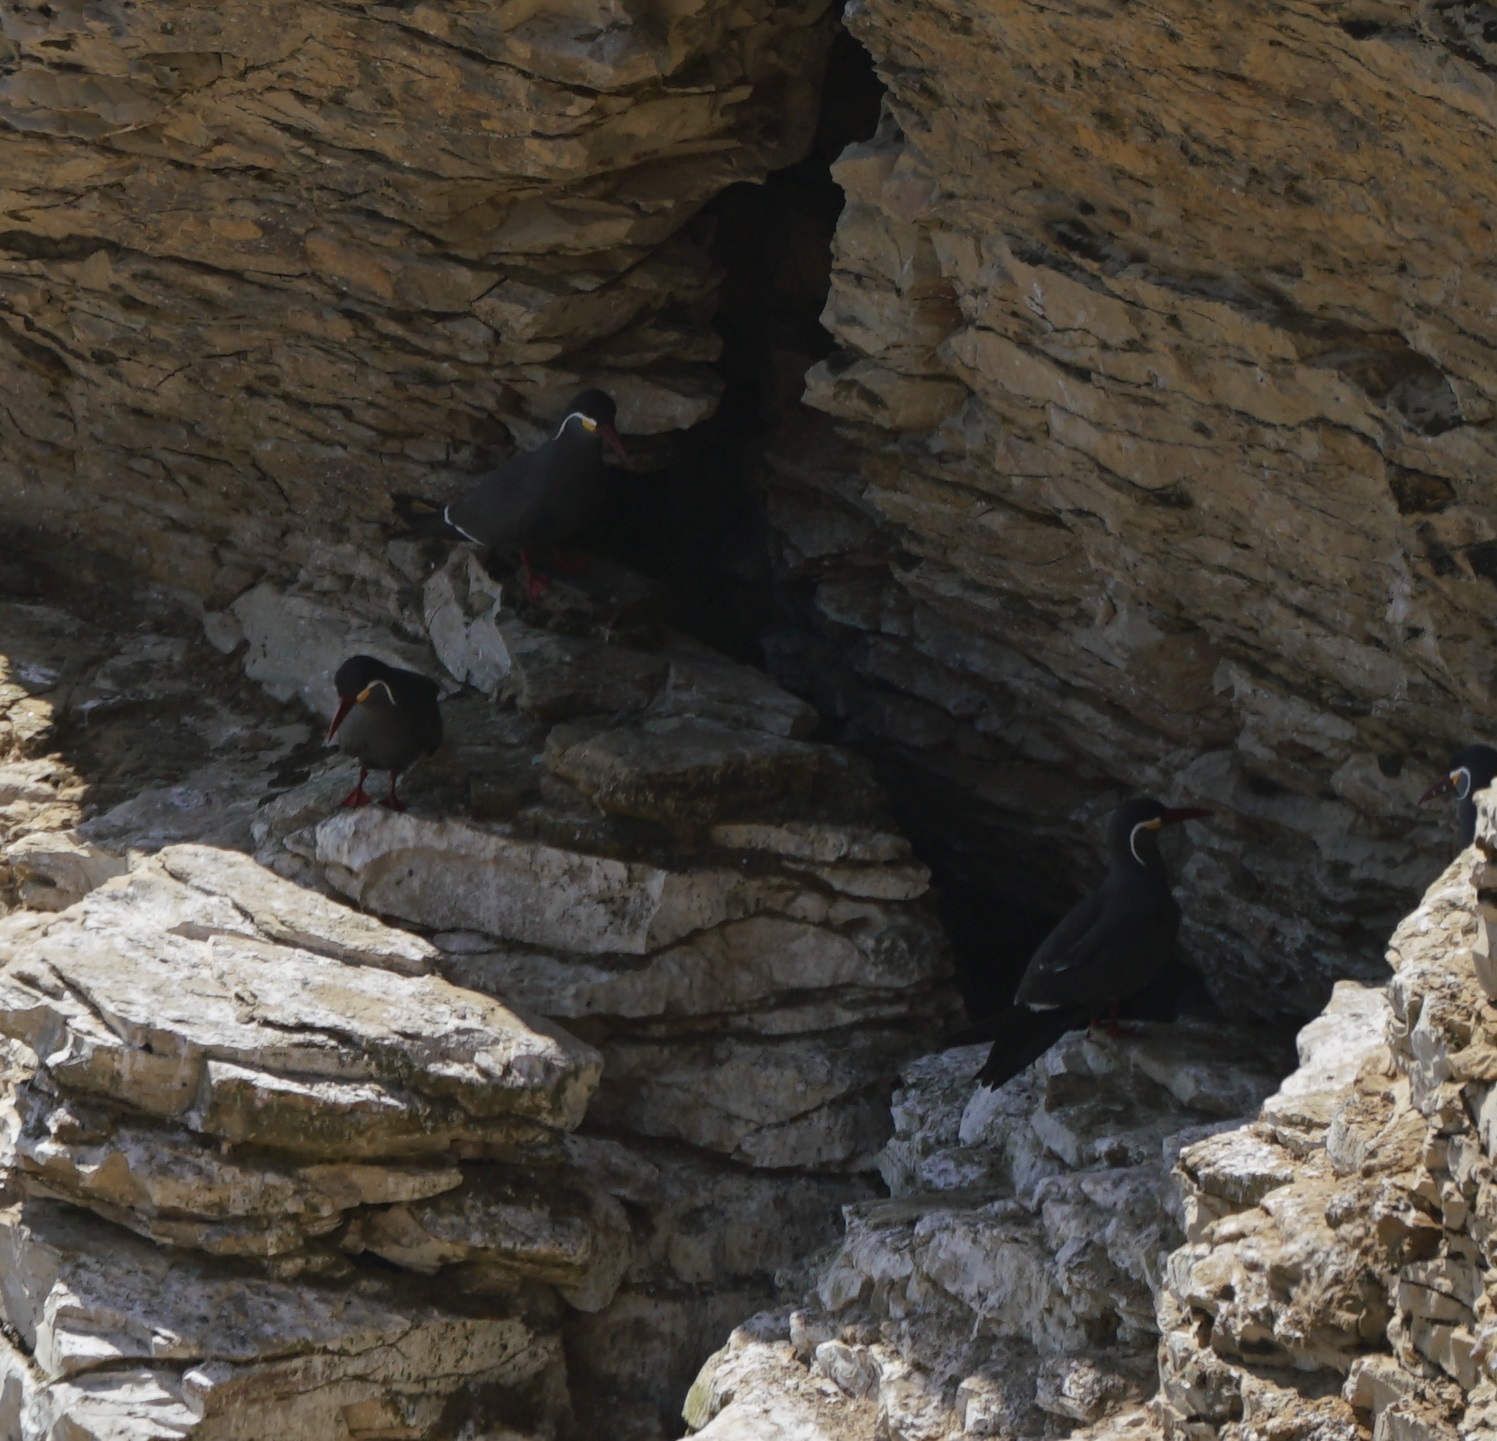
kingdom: Animalia
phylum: Chordata
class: Aves
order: Charadriiformes
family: Laridae
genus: Larosterna
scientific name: Larosterna inca
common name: Inca tern
